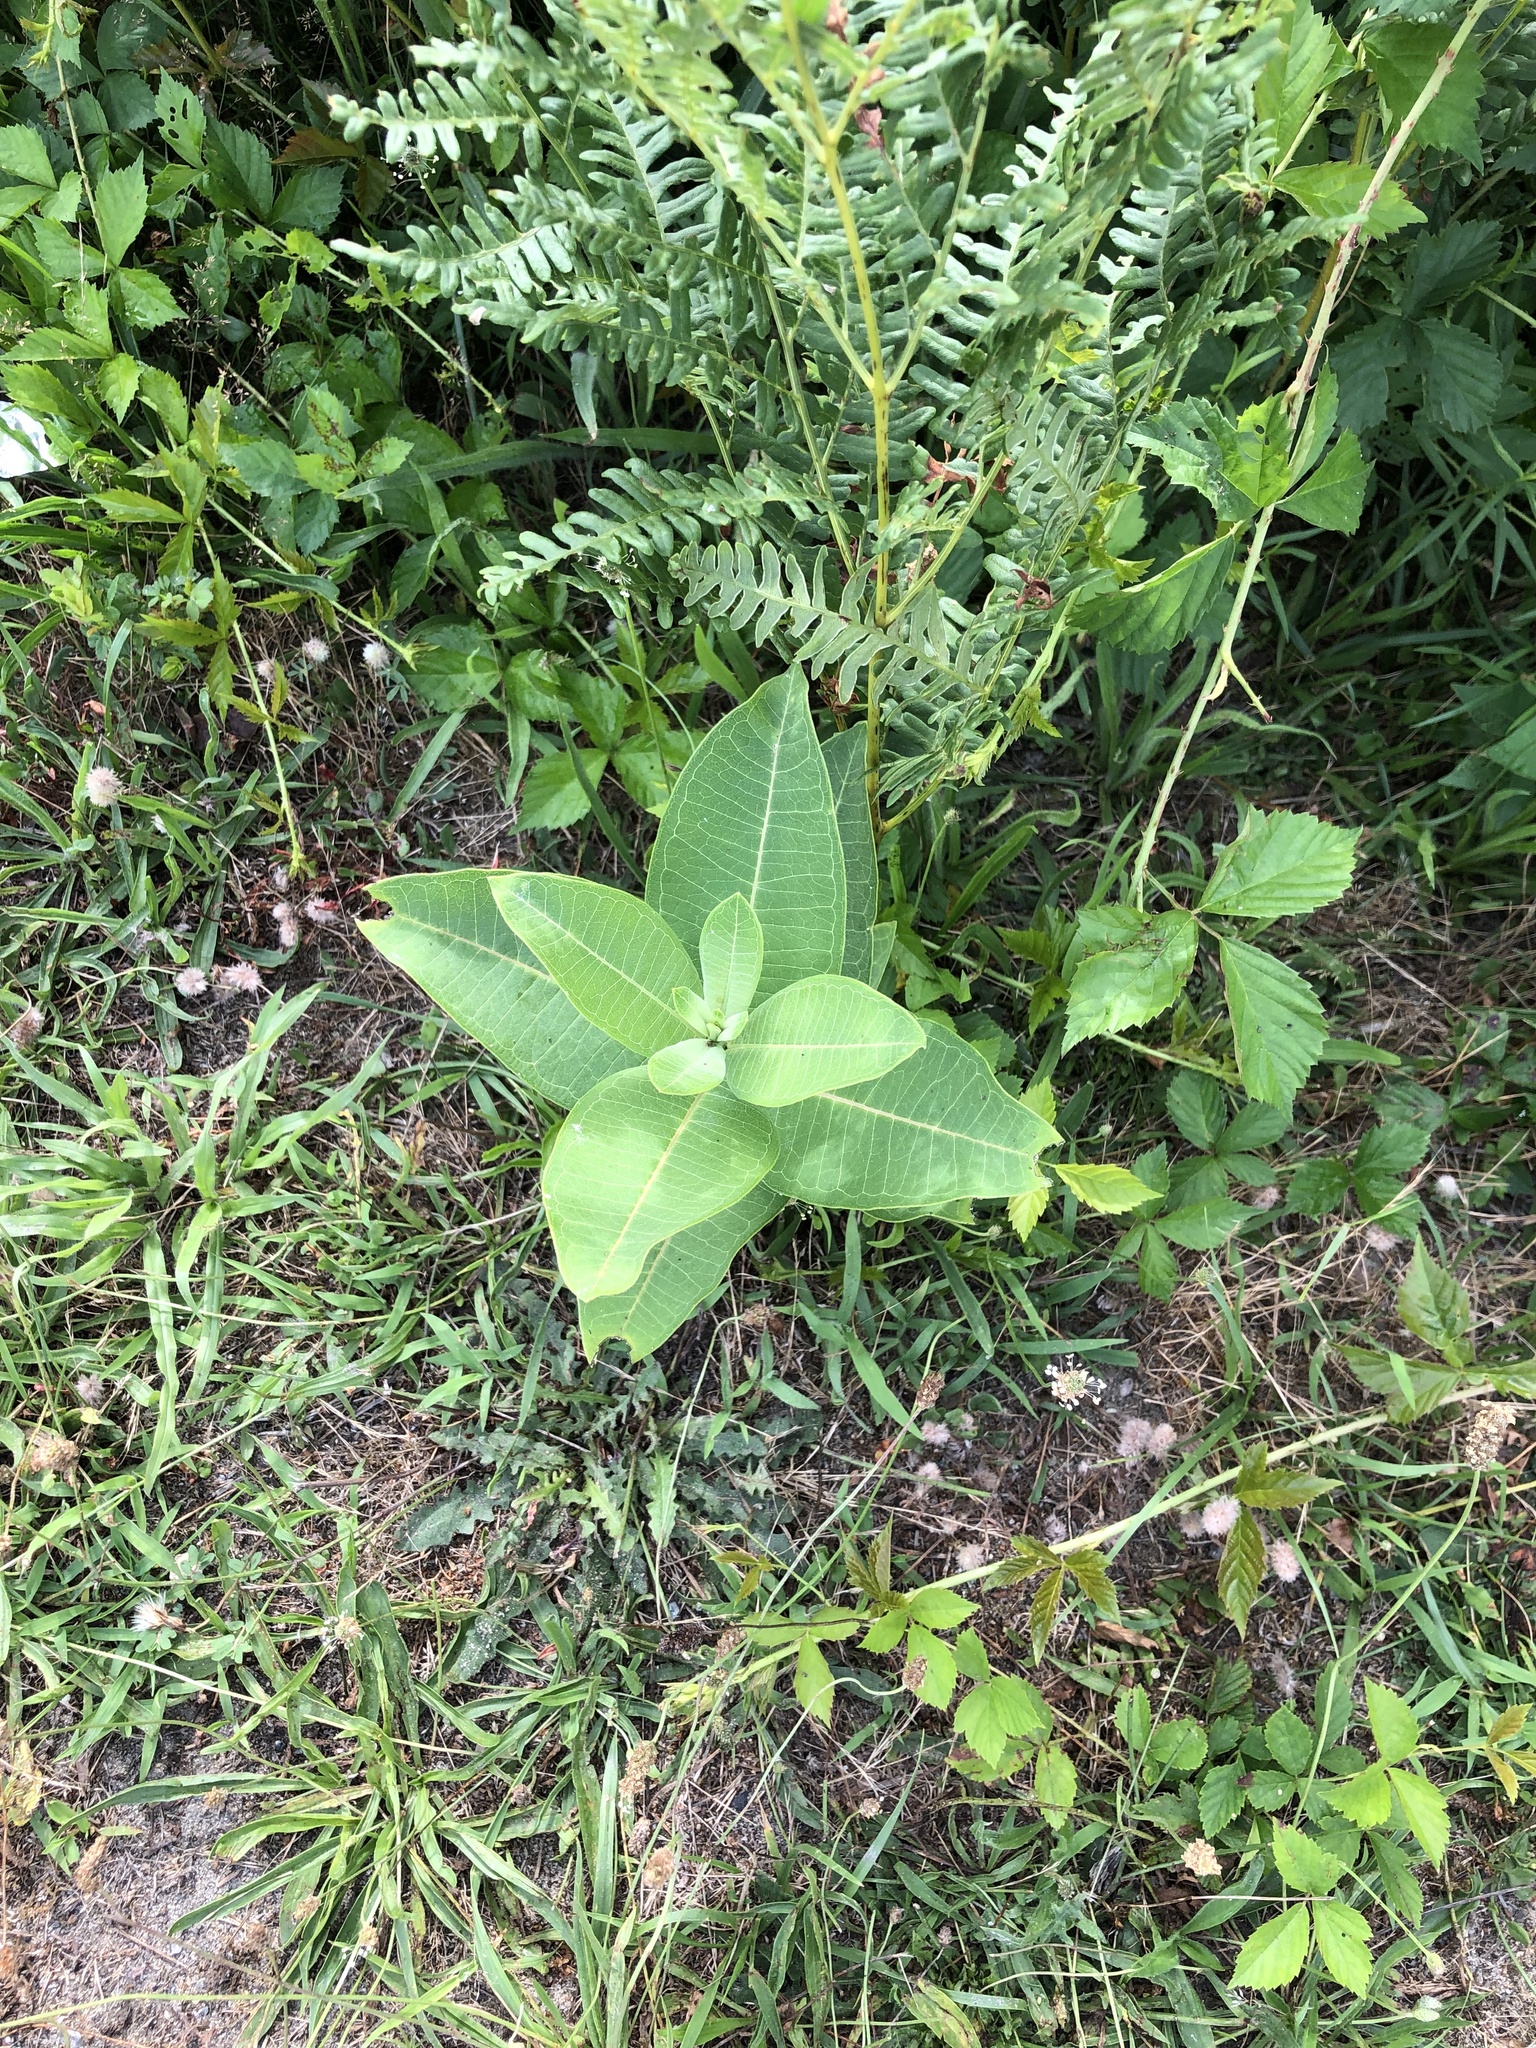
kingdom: Plantae
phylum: Tracheophyta
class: Magnoliopsida
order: Gentianales
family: Apocynaceae
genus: Asclepias
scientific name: Asclepias syriaca
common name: Common milkweed
